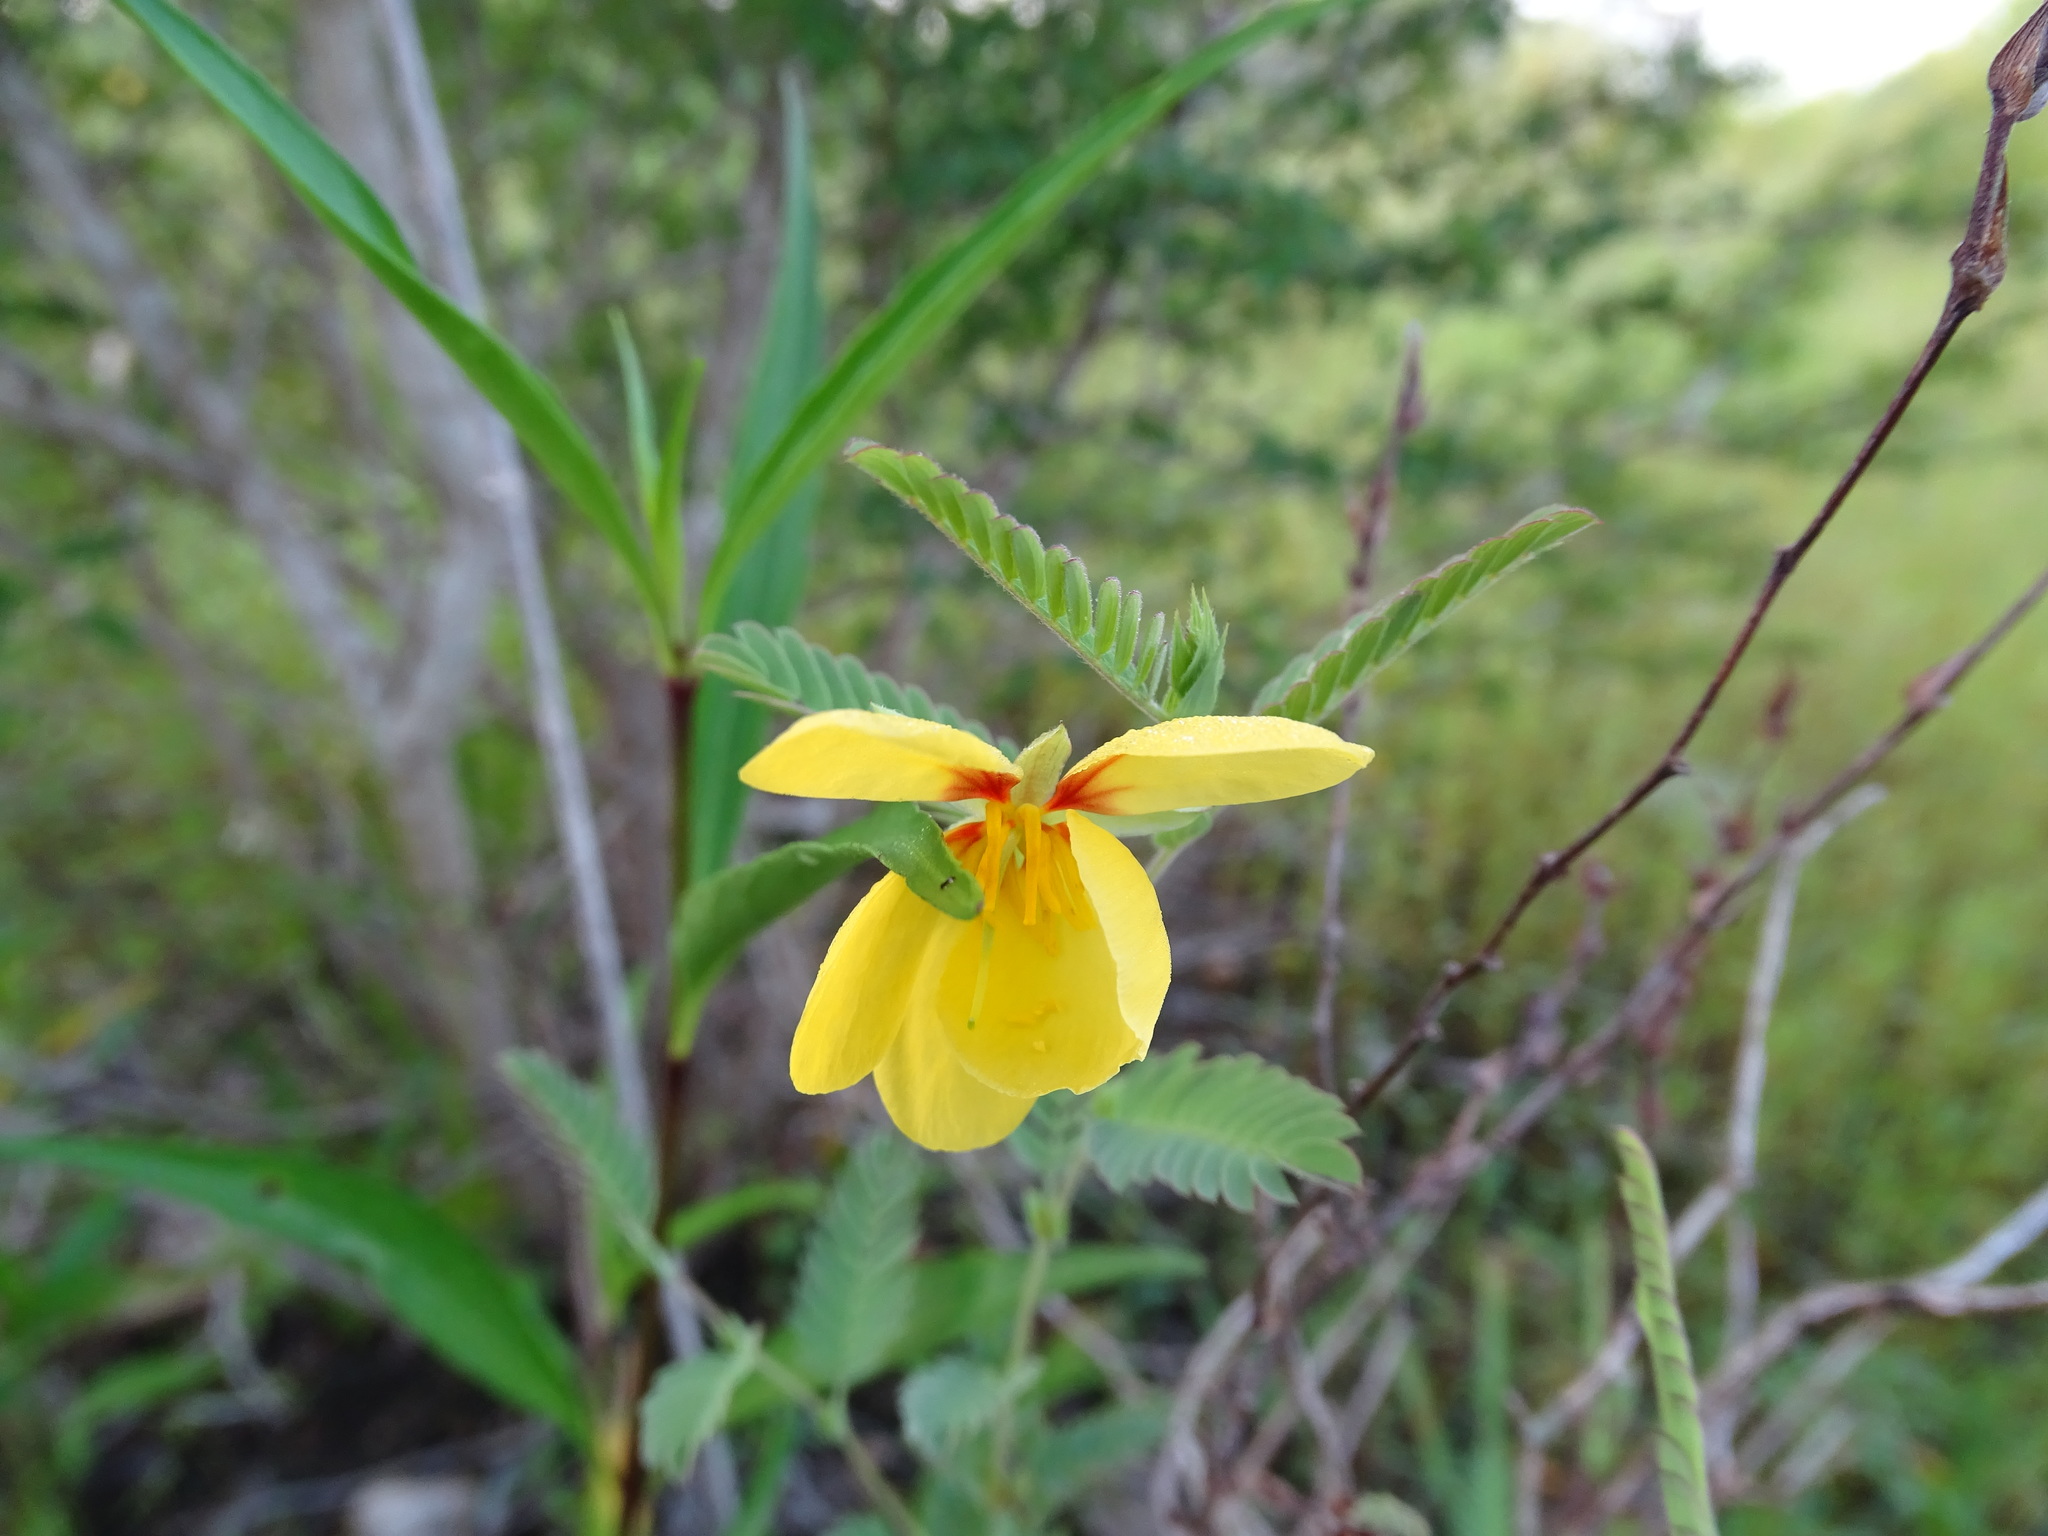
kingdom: Plantae
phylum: Tracheophyta
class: Magnoliopsida
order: Fabales
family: Fabaceae
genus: Chamaecrista
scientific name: Chamaecrista nictitans
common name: Sensitive cassia
